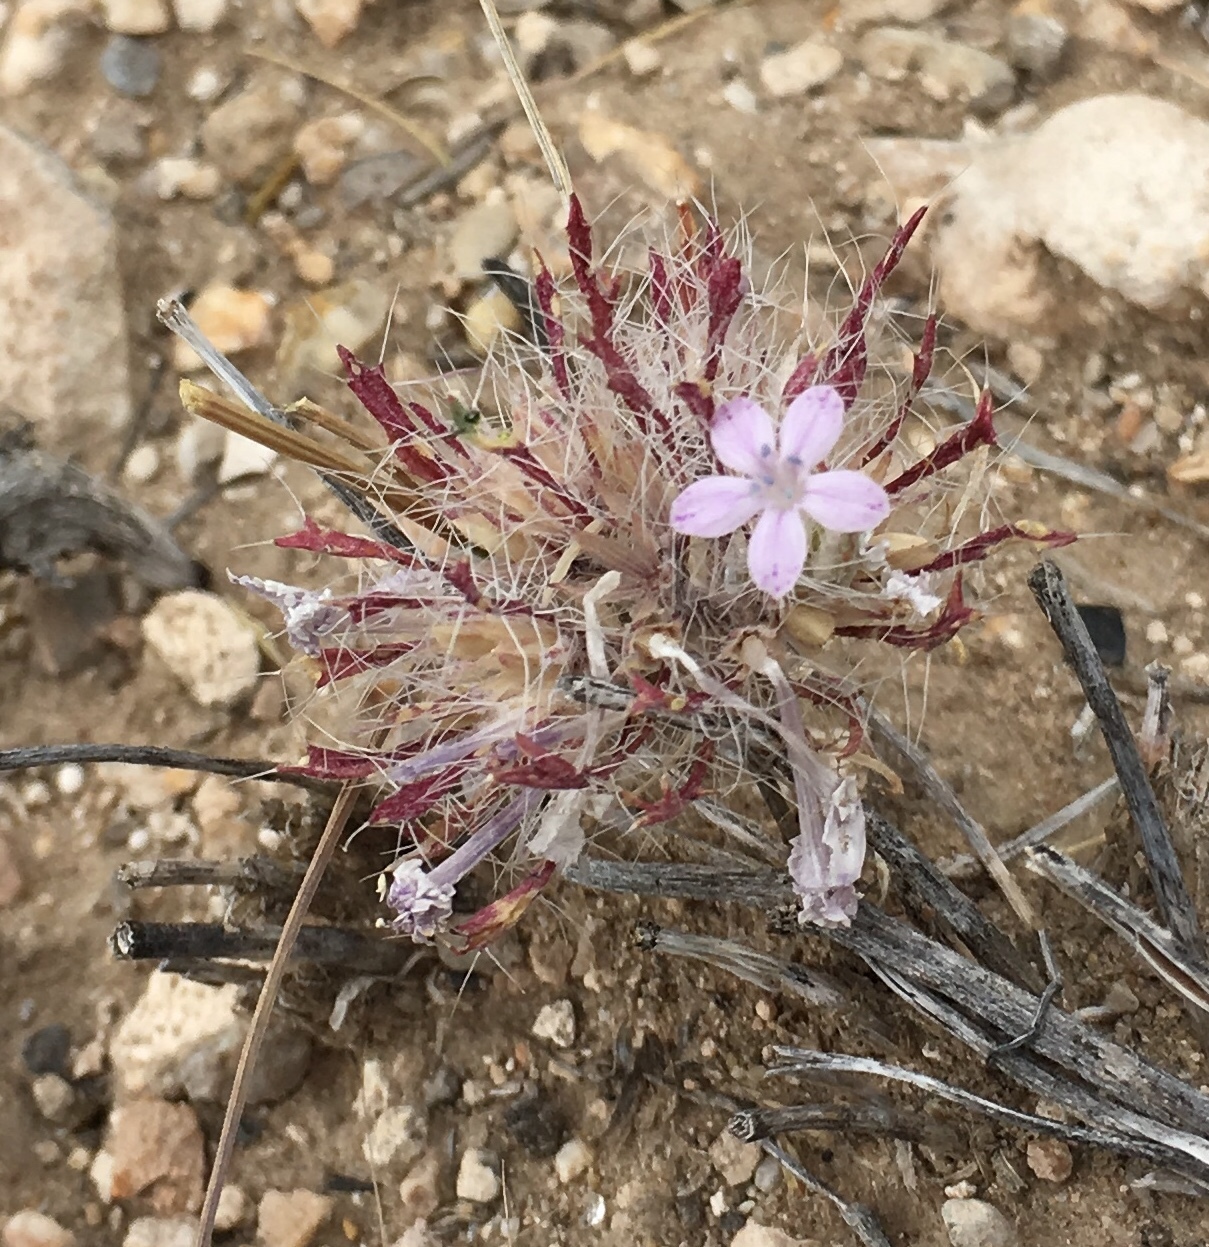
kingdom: Plantae
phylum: Tracheophyta
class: Magnoliopsida
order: Ericales
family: Polemoniaceae
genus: Langloisia
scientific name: Langloisia setosissima
